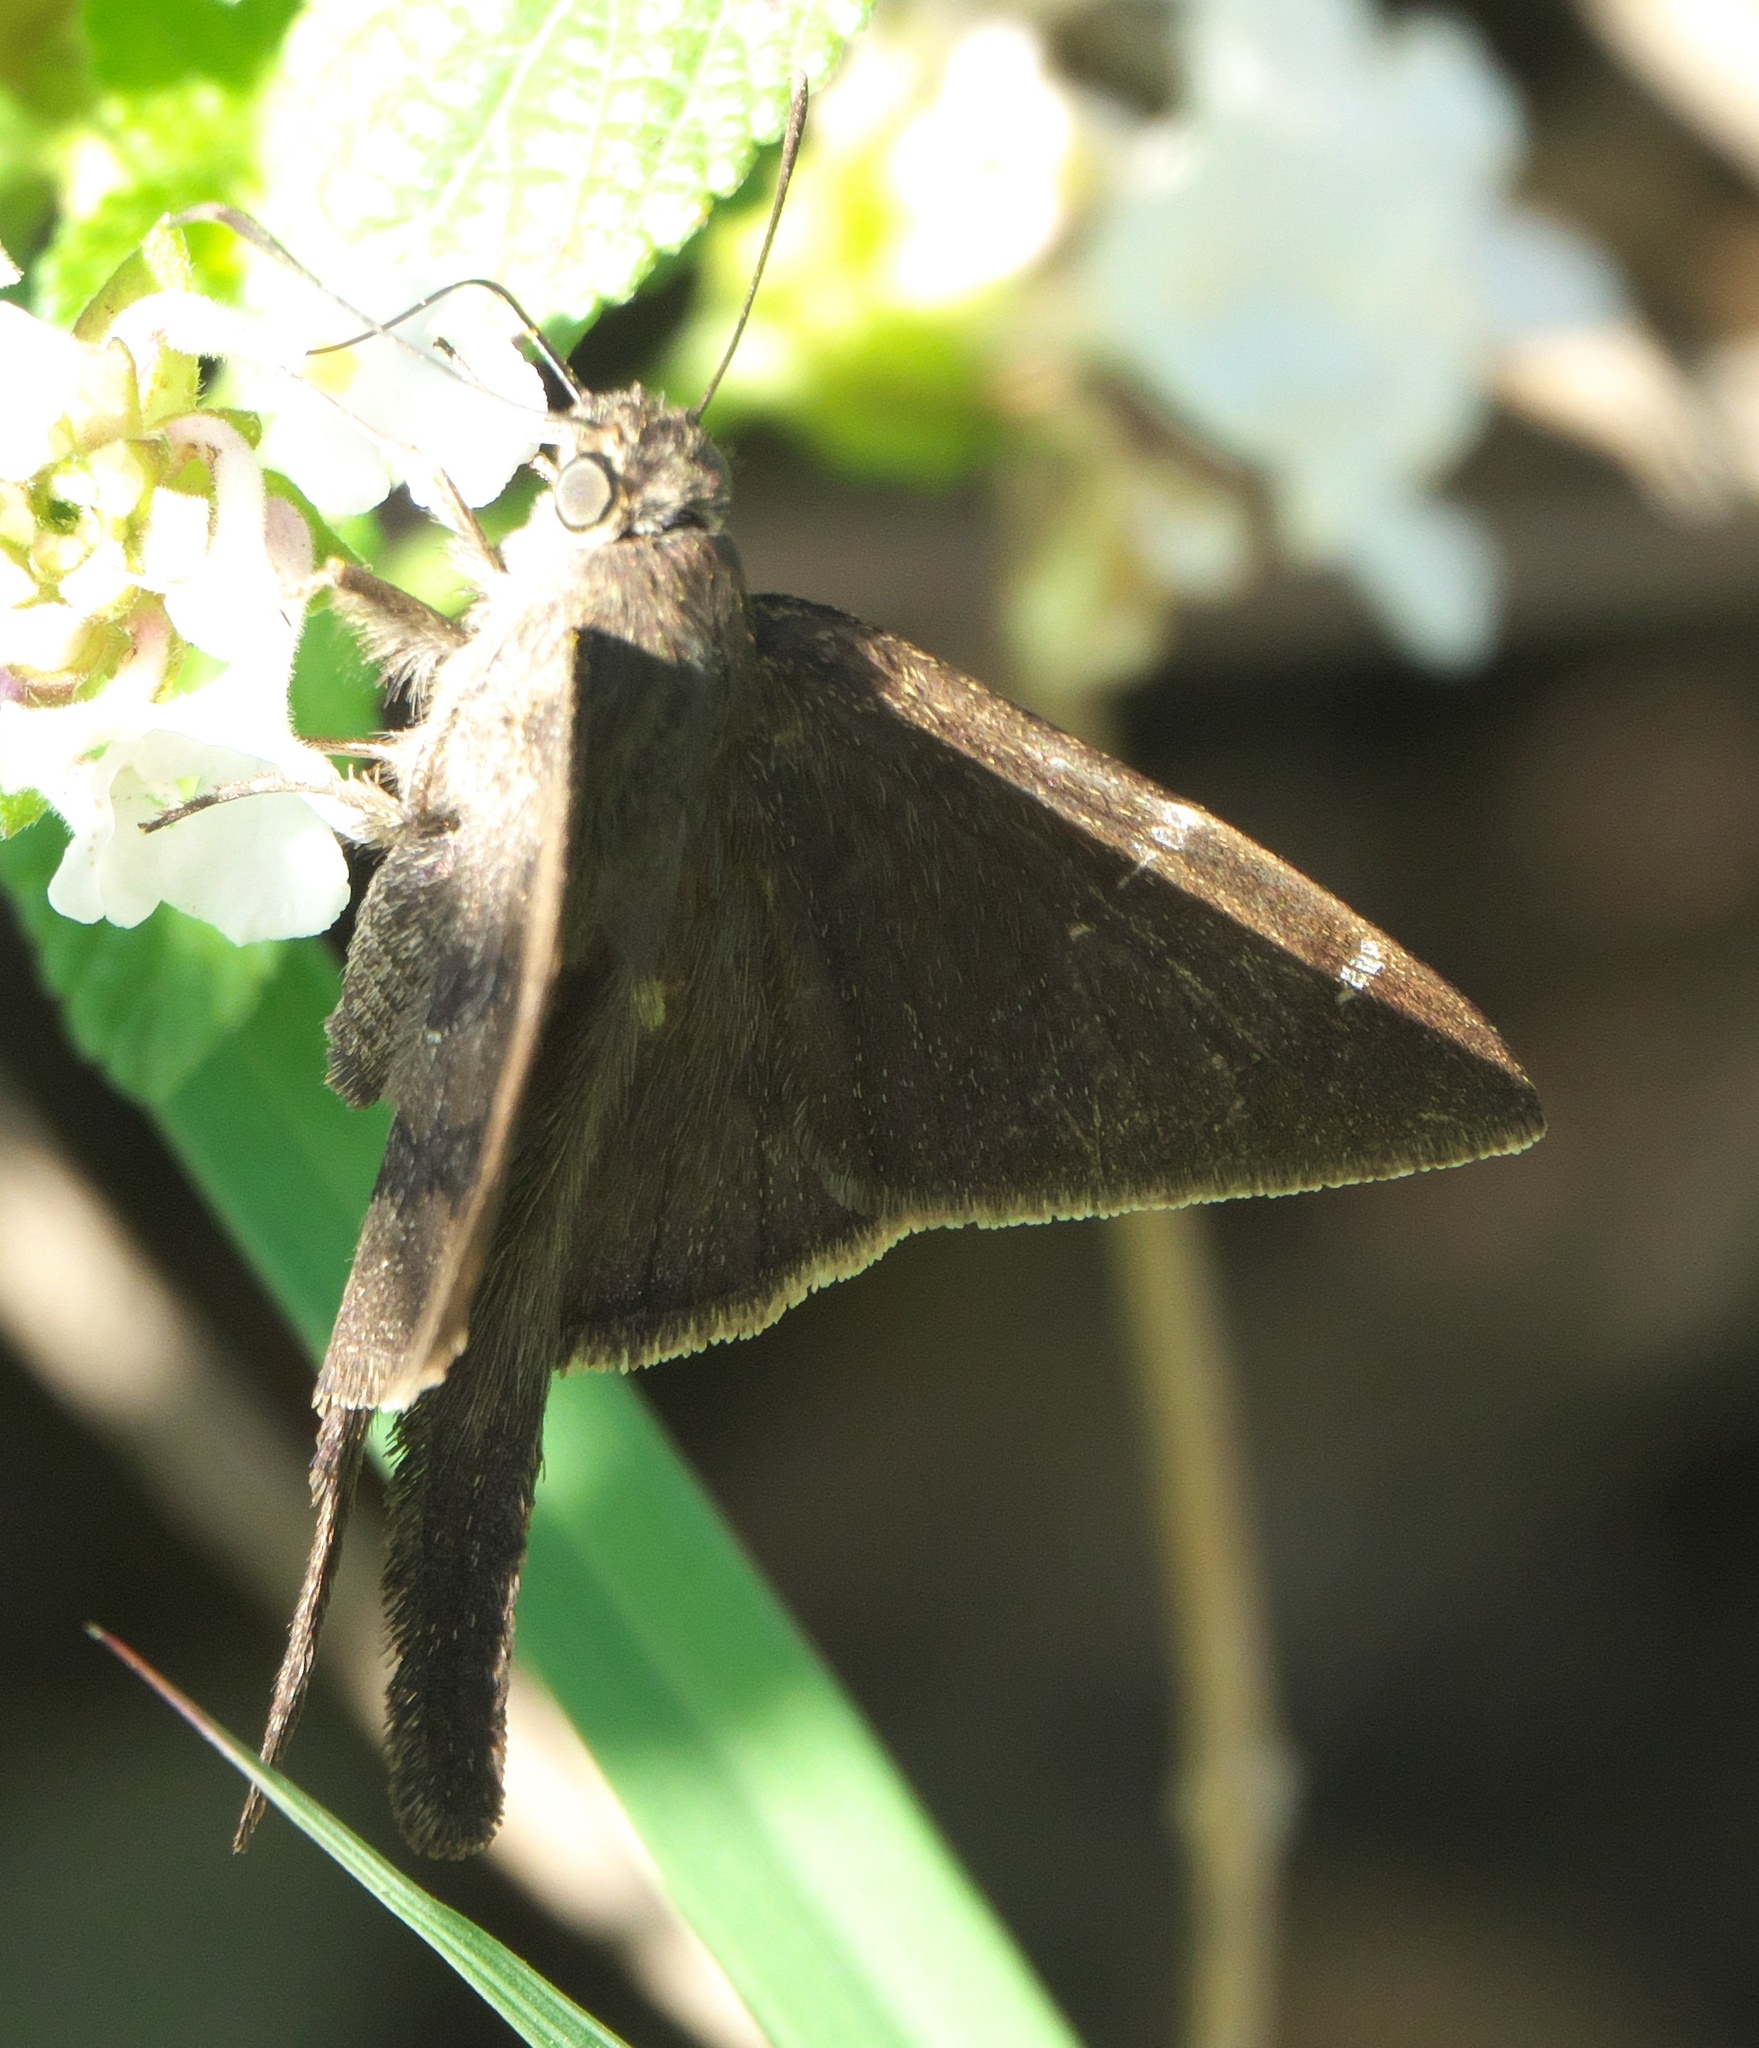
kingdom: Animalia
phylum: Arthropoda
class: Insecta
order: Lepidoptera
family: Hesperiidae
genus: Urbanus
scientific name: Urbanus procne
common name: Brown longtail
